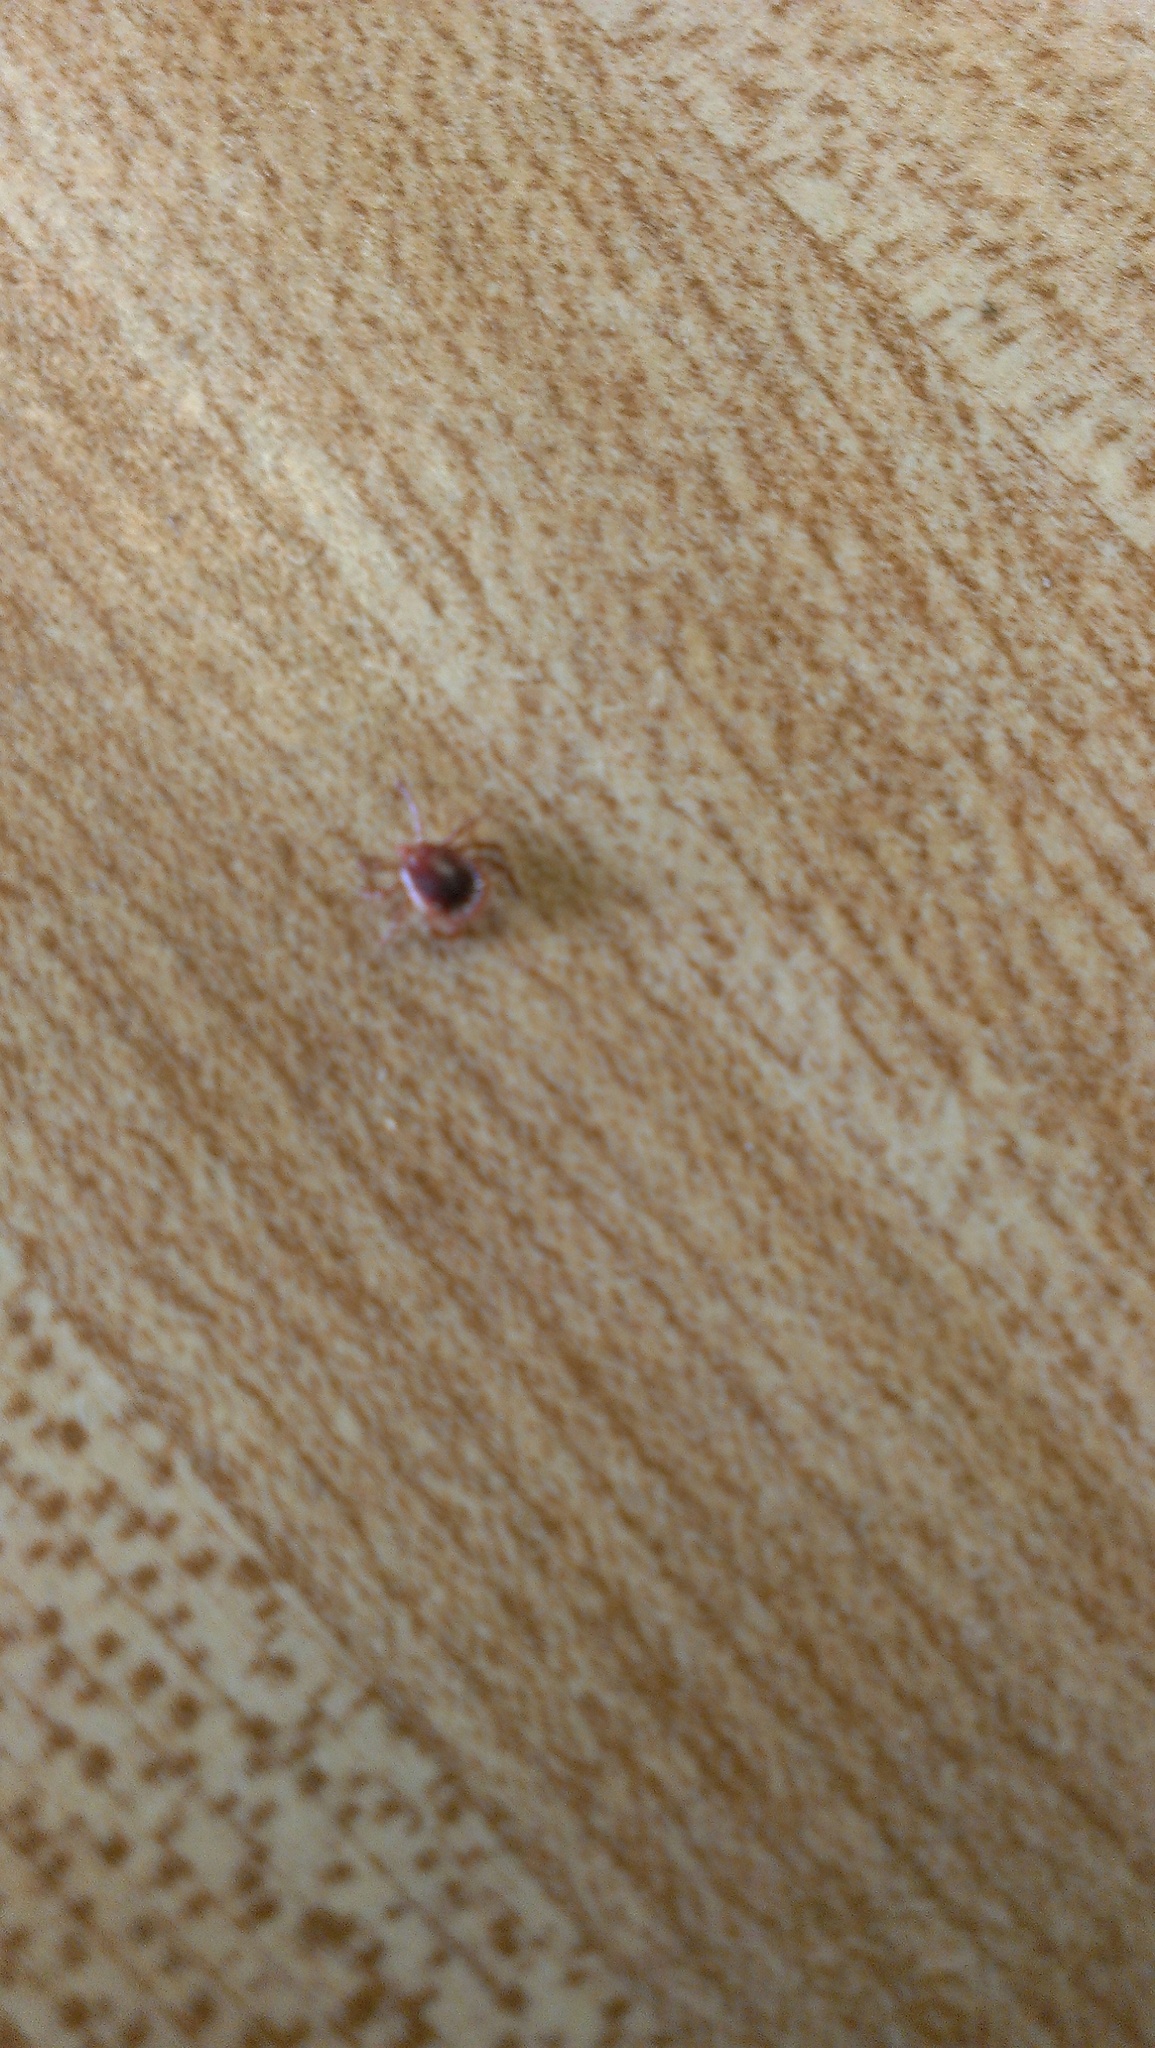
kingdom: Animalia
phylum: Arthropoda
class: Arachnida
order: Ixodida
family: Ixodidae
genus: Amblyomma
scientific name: Amblyomma americanum
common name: Lone star tick
